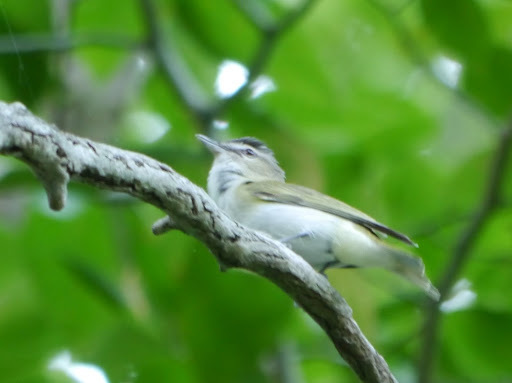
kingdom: Animalia
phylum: Chordata
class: Aves
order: Passeriformes
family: Vireonidae
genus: Vireo
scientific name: Vireo olivaceus
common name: Red-eyed vireo
